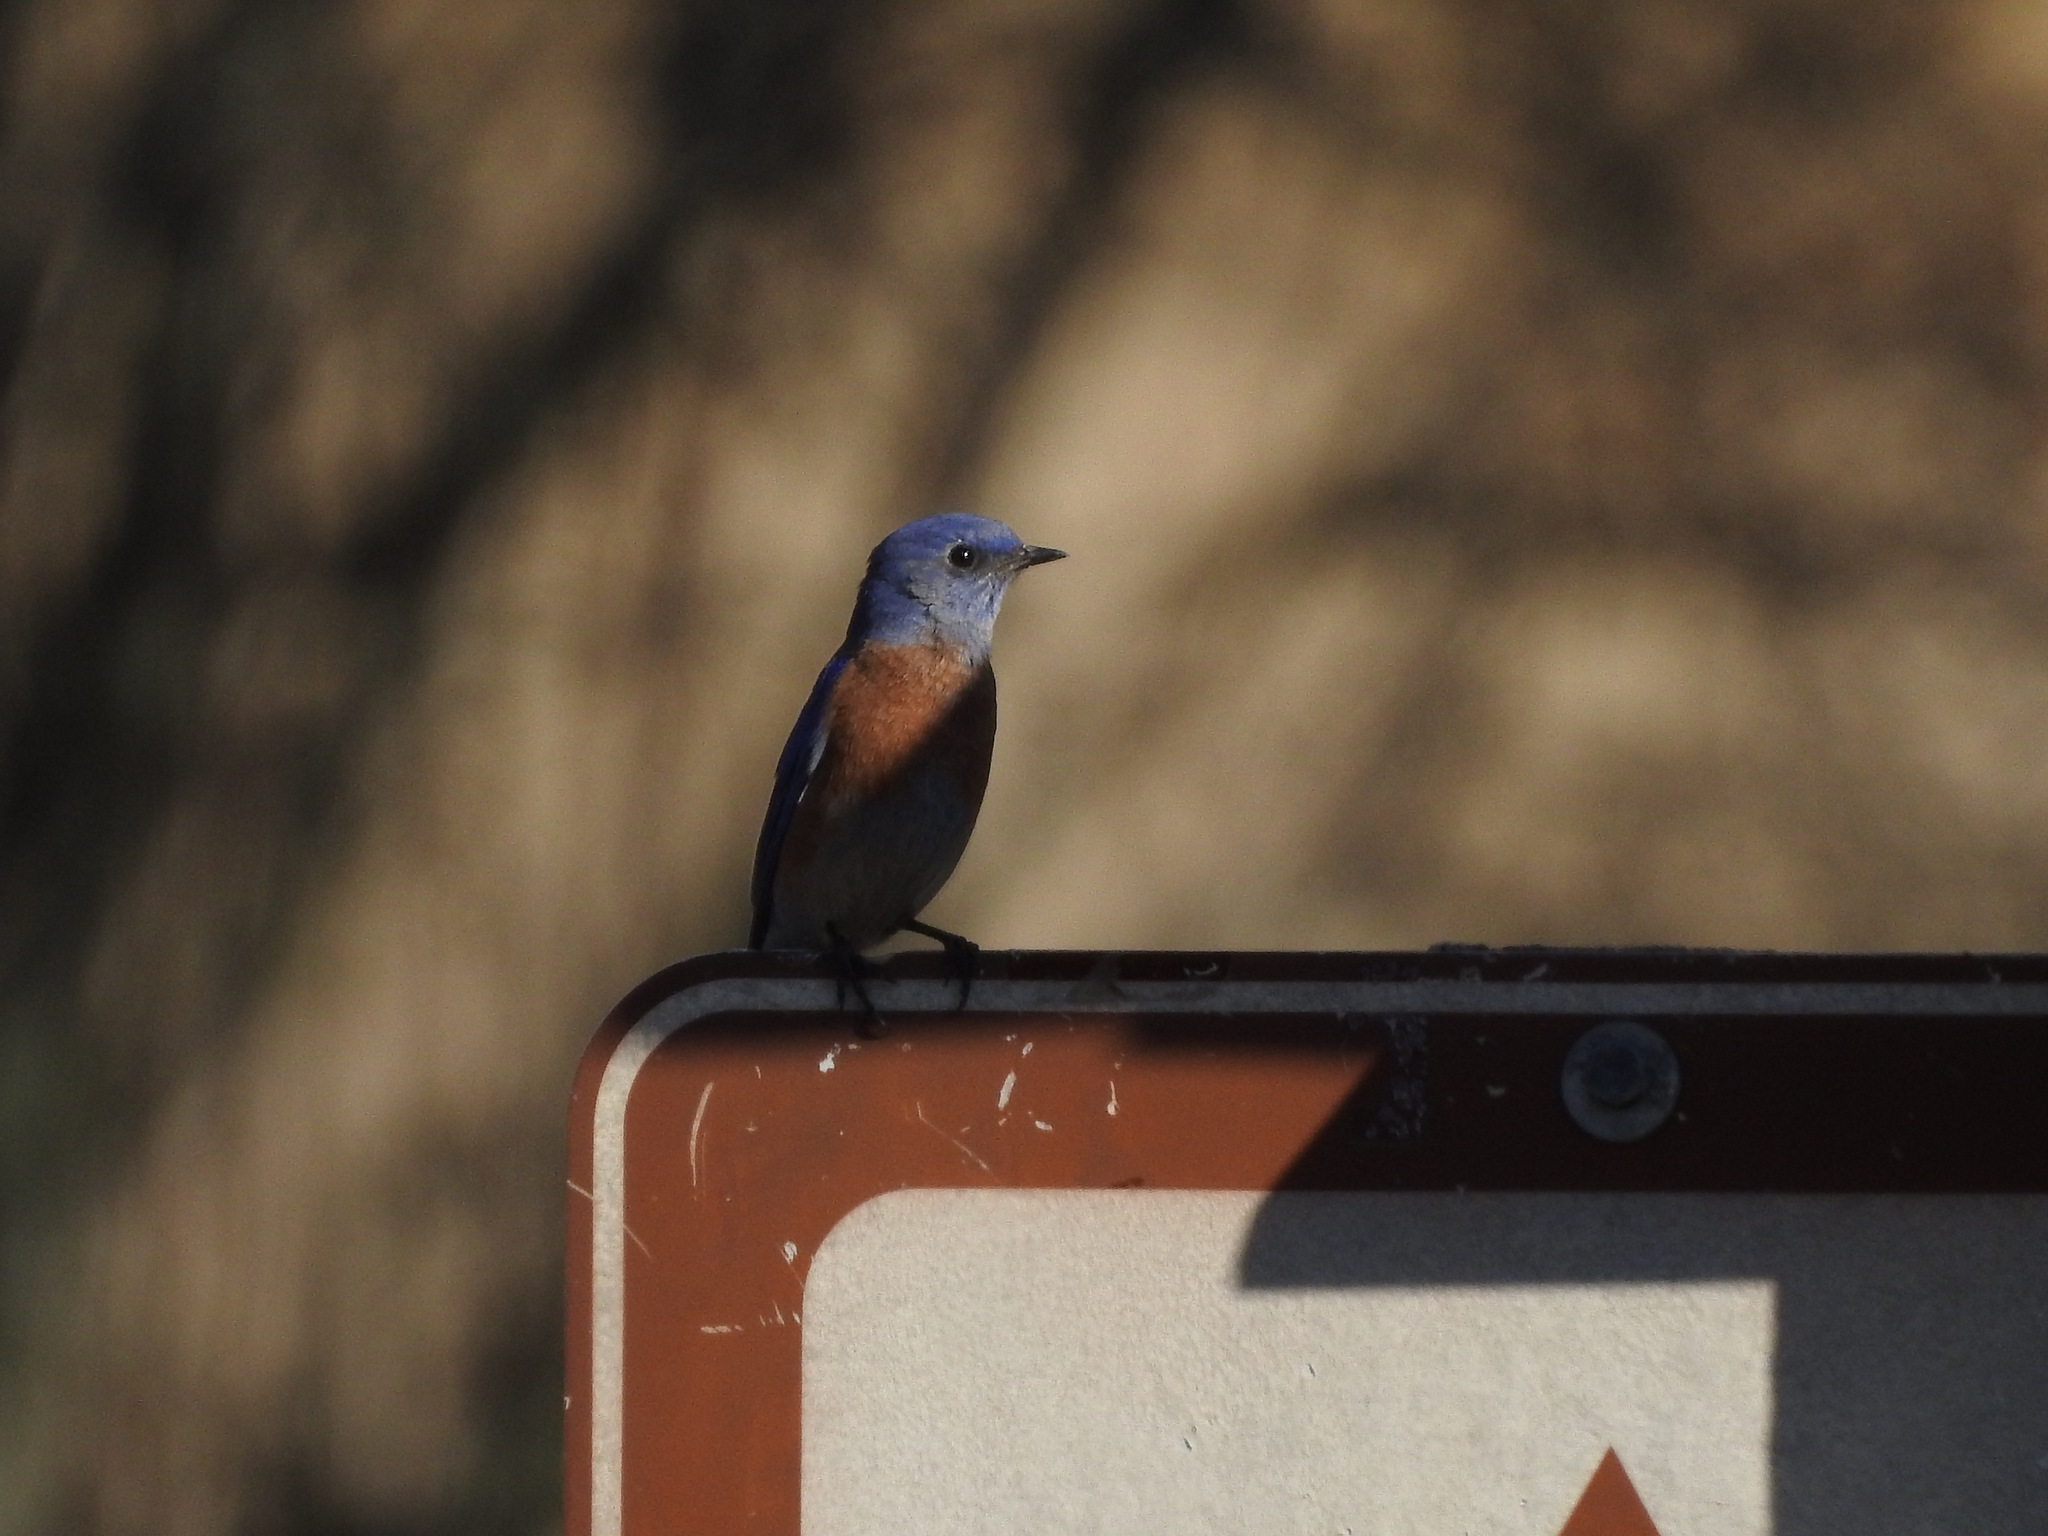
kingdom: Animalia
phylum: Chordata
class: Aves
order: Passeriformes
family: Turdidae
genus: Sialia
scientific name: Sialia mexicana
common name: Western bluebird
